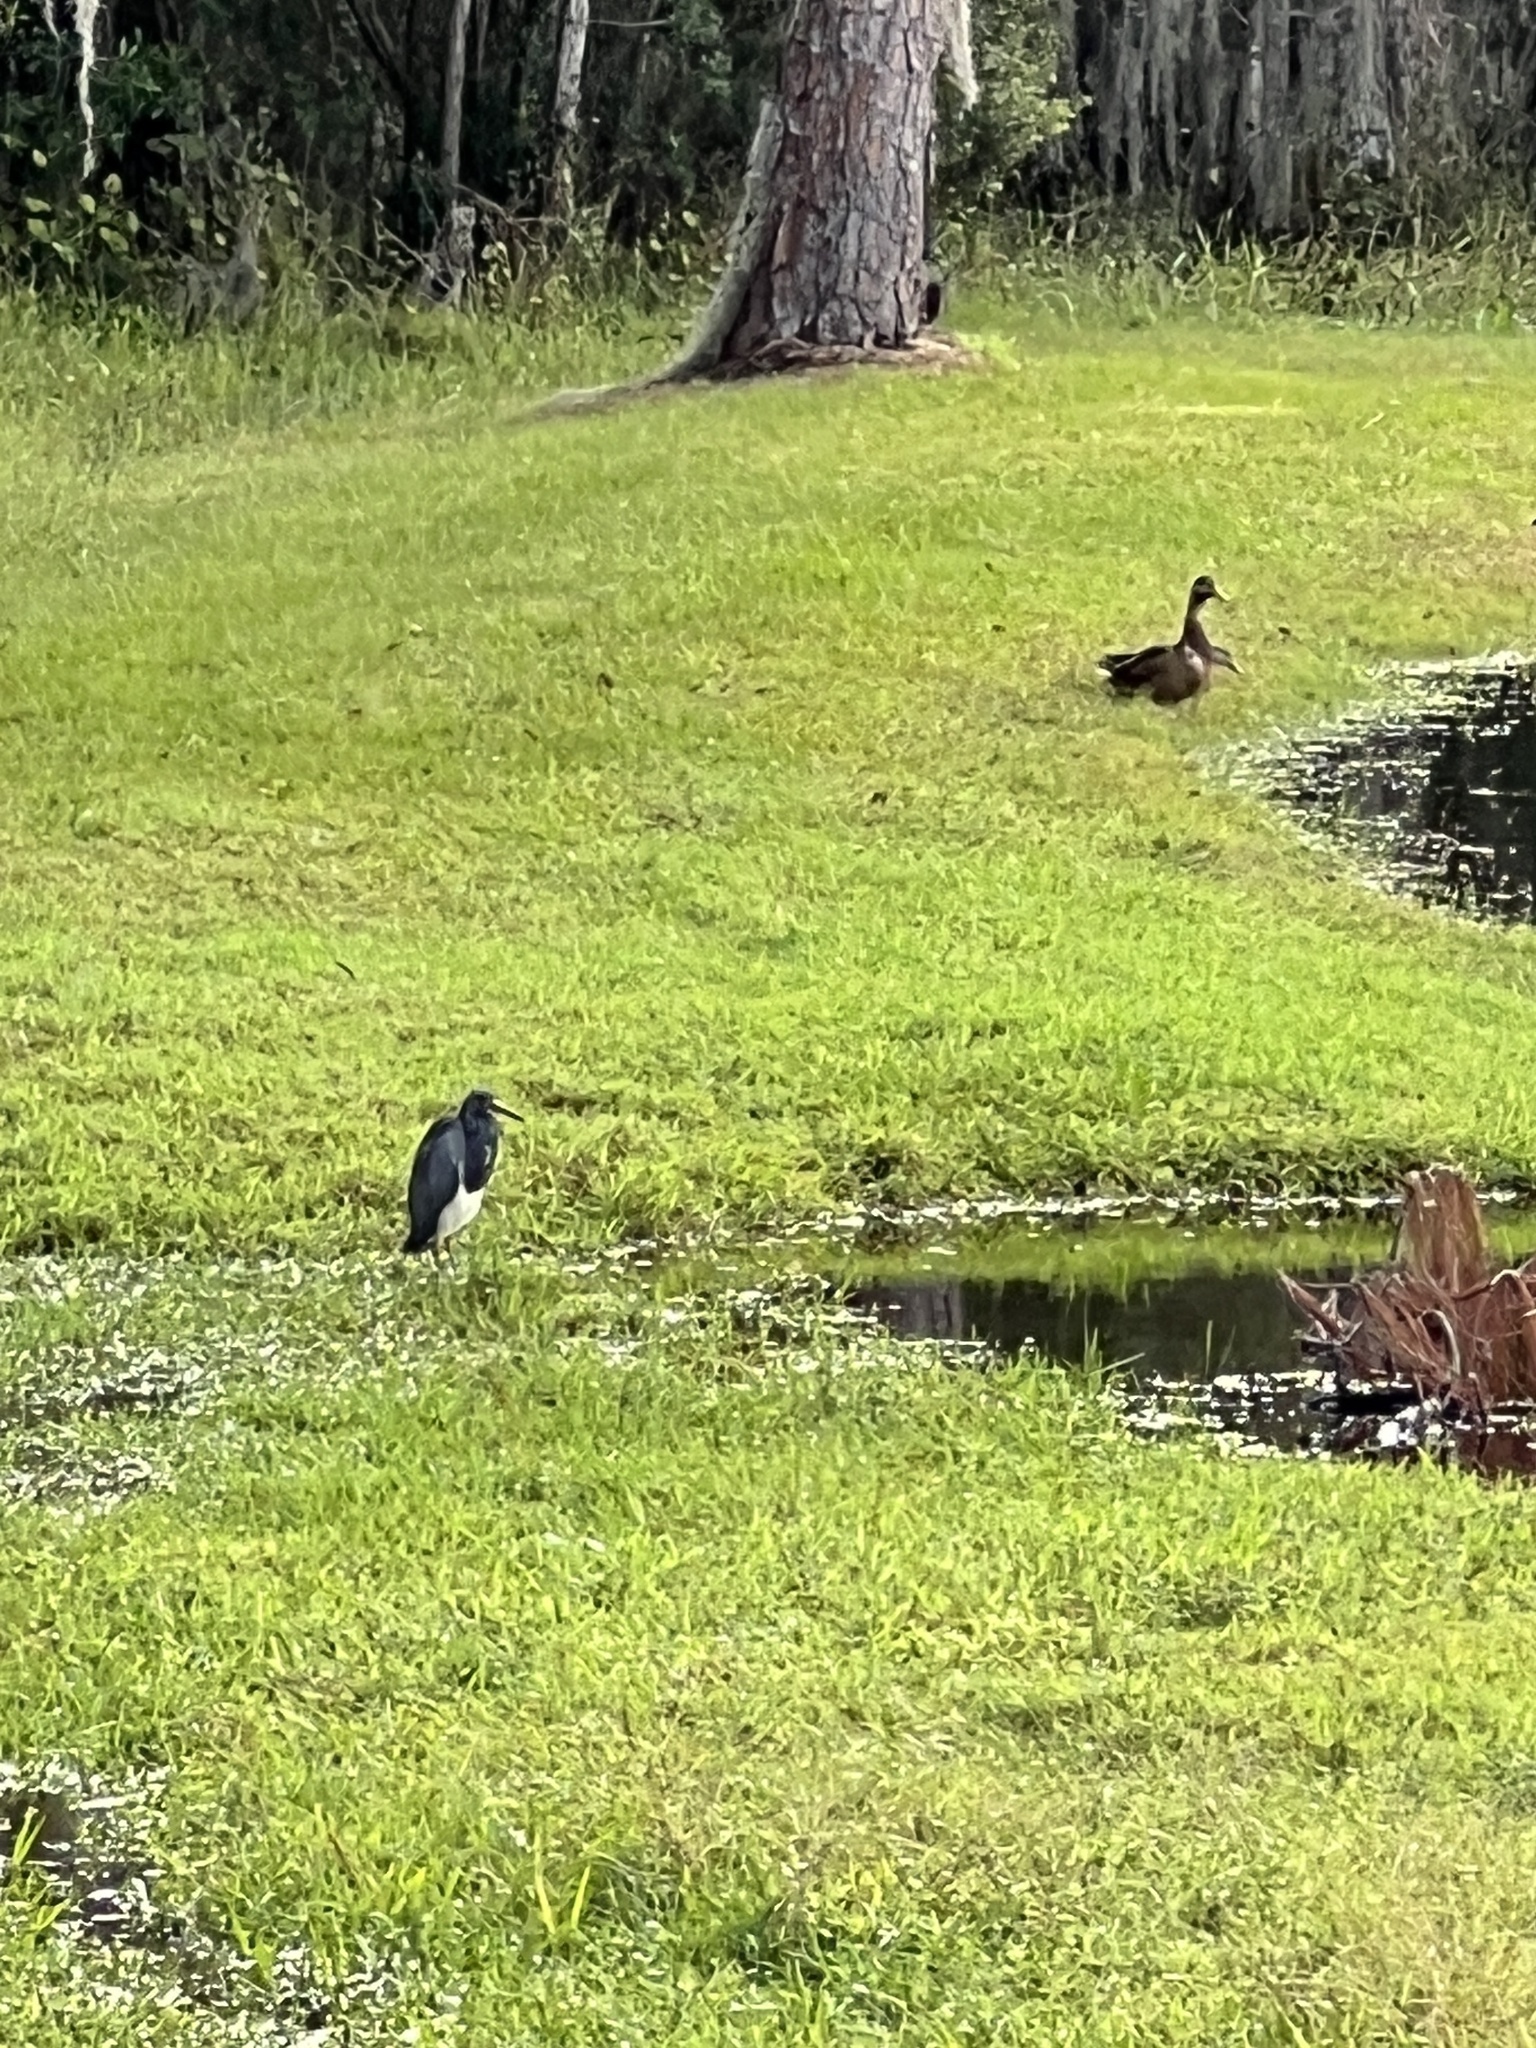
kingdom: Animalia
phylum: Chordata
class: Aves
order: Pelecaniformes
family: Ardeidae
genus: Egretta
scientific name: Egretta tricolor
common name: Tricolored heron
